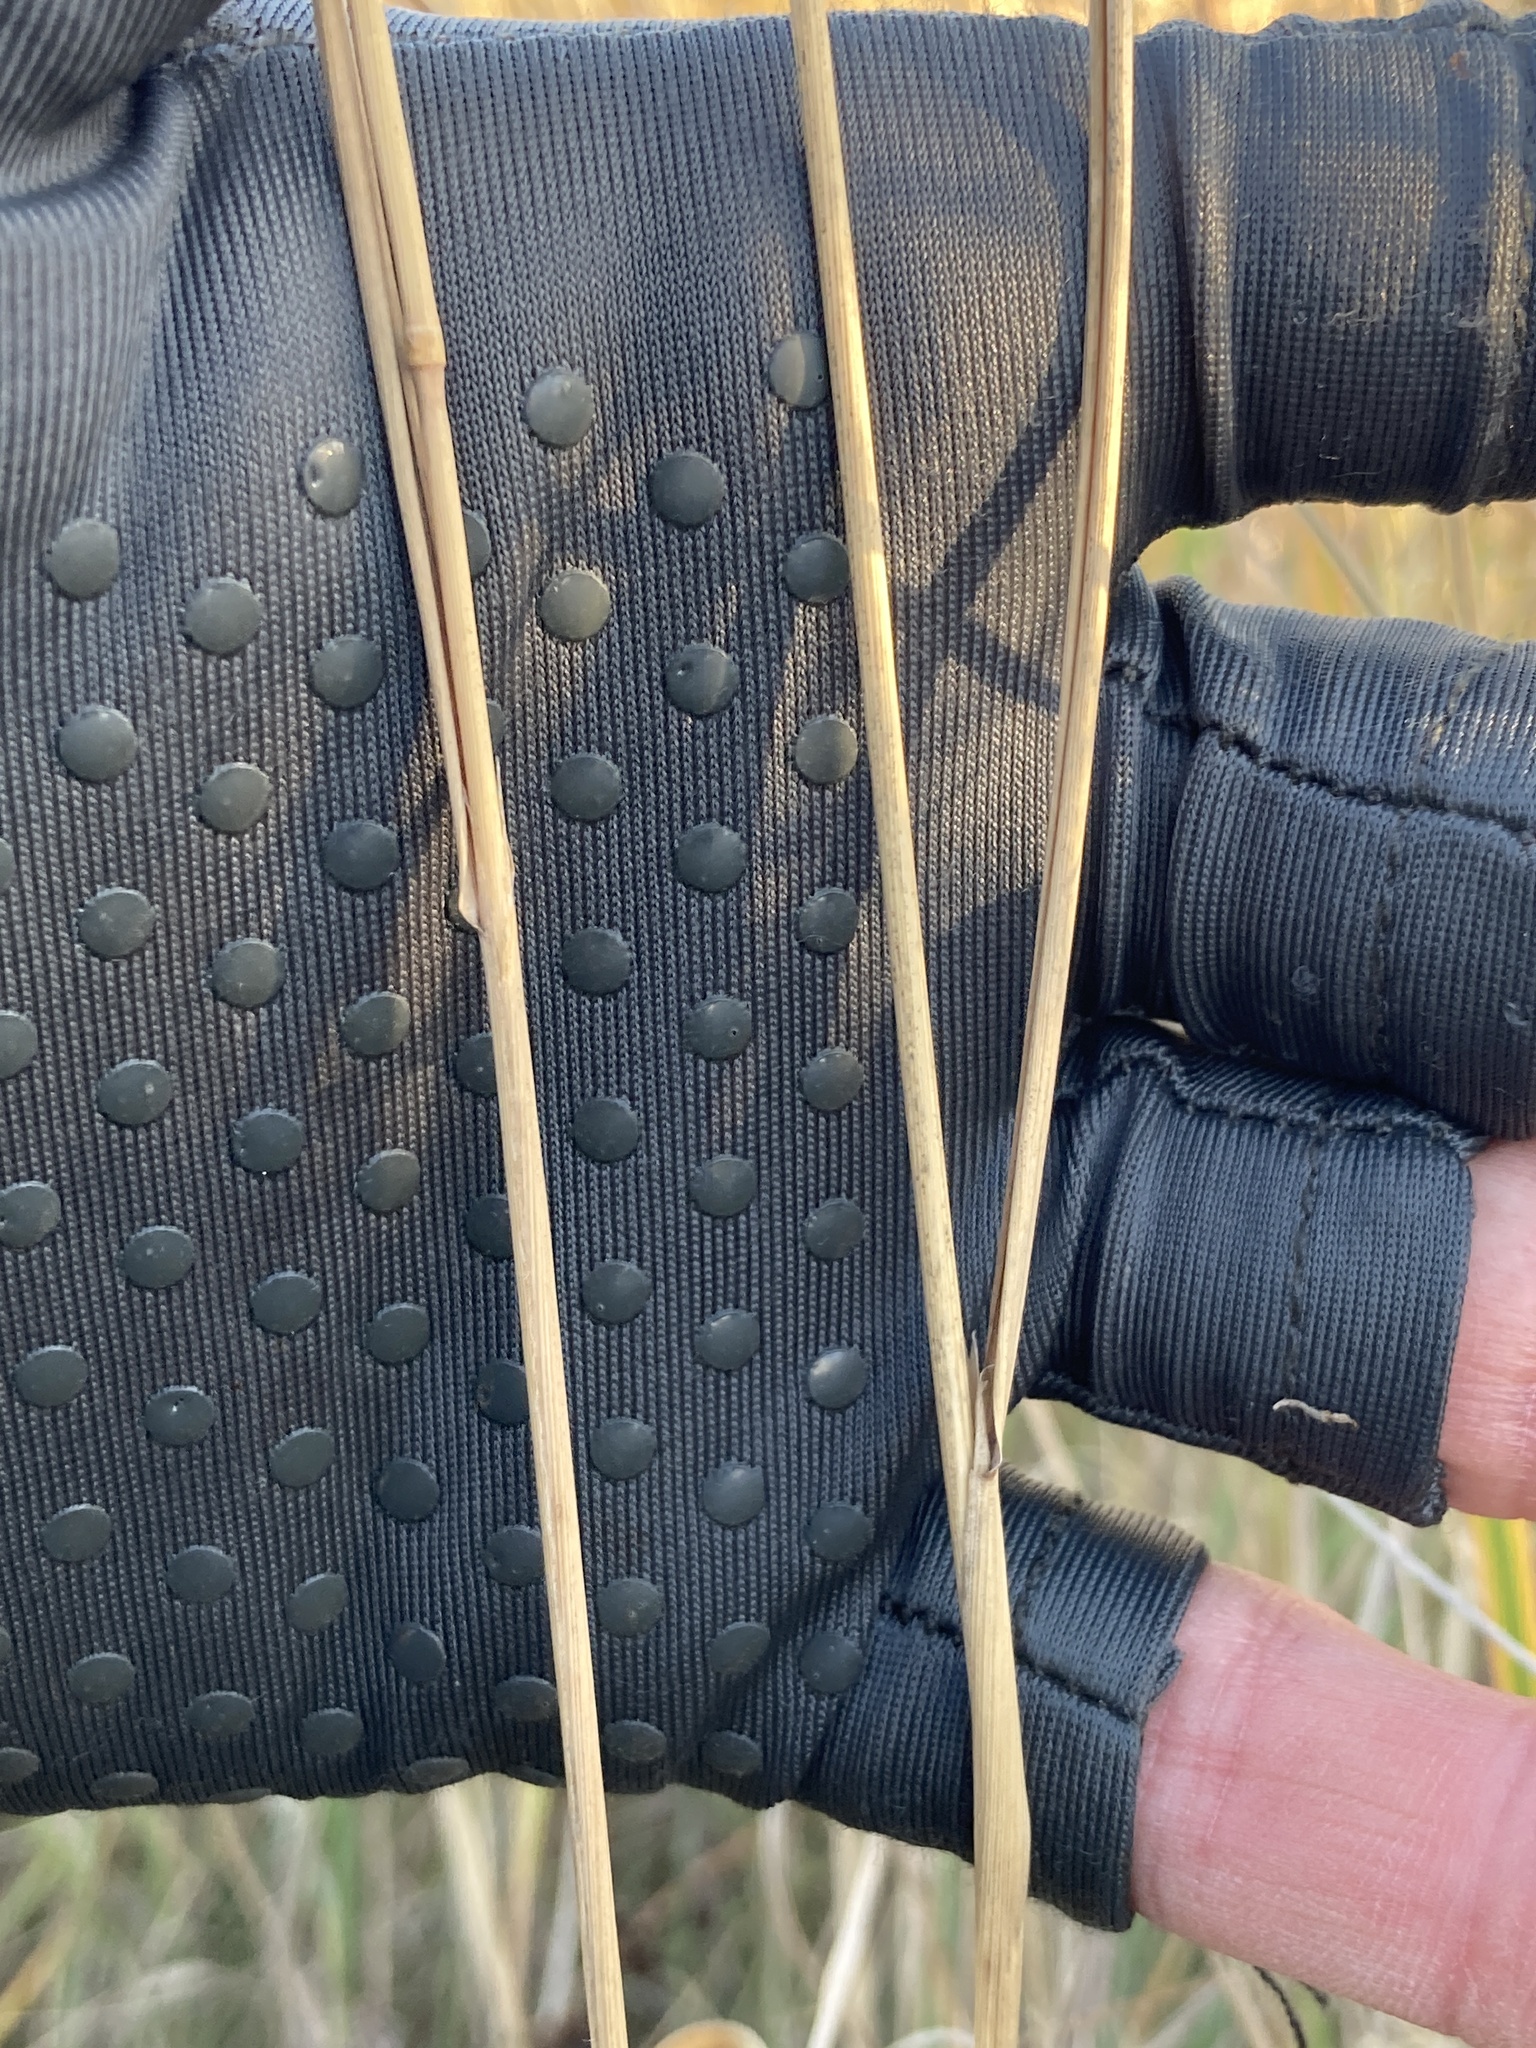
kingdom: Plantae
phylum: Tracheophyta
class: Liliopsida
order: Poales
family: Poaceae
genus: Calamagrostis
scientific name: Calamagrostis epigejos
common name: Wood small-reed
